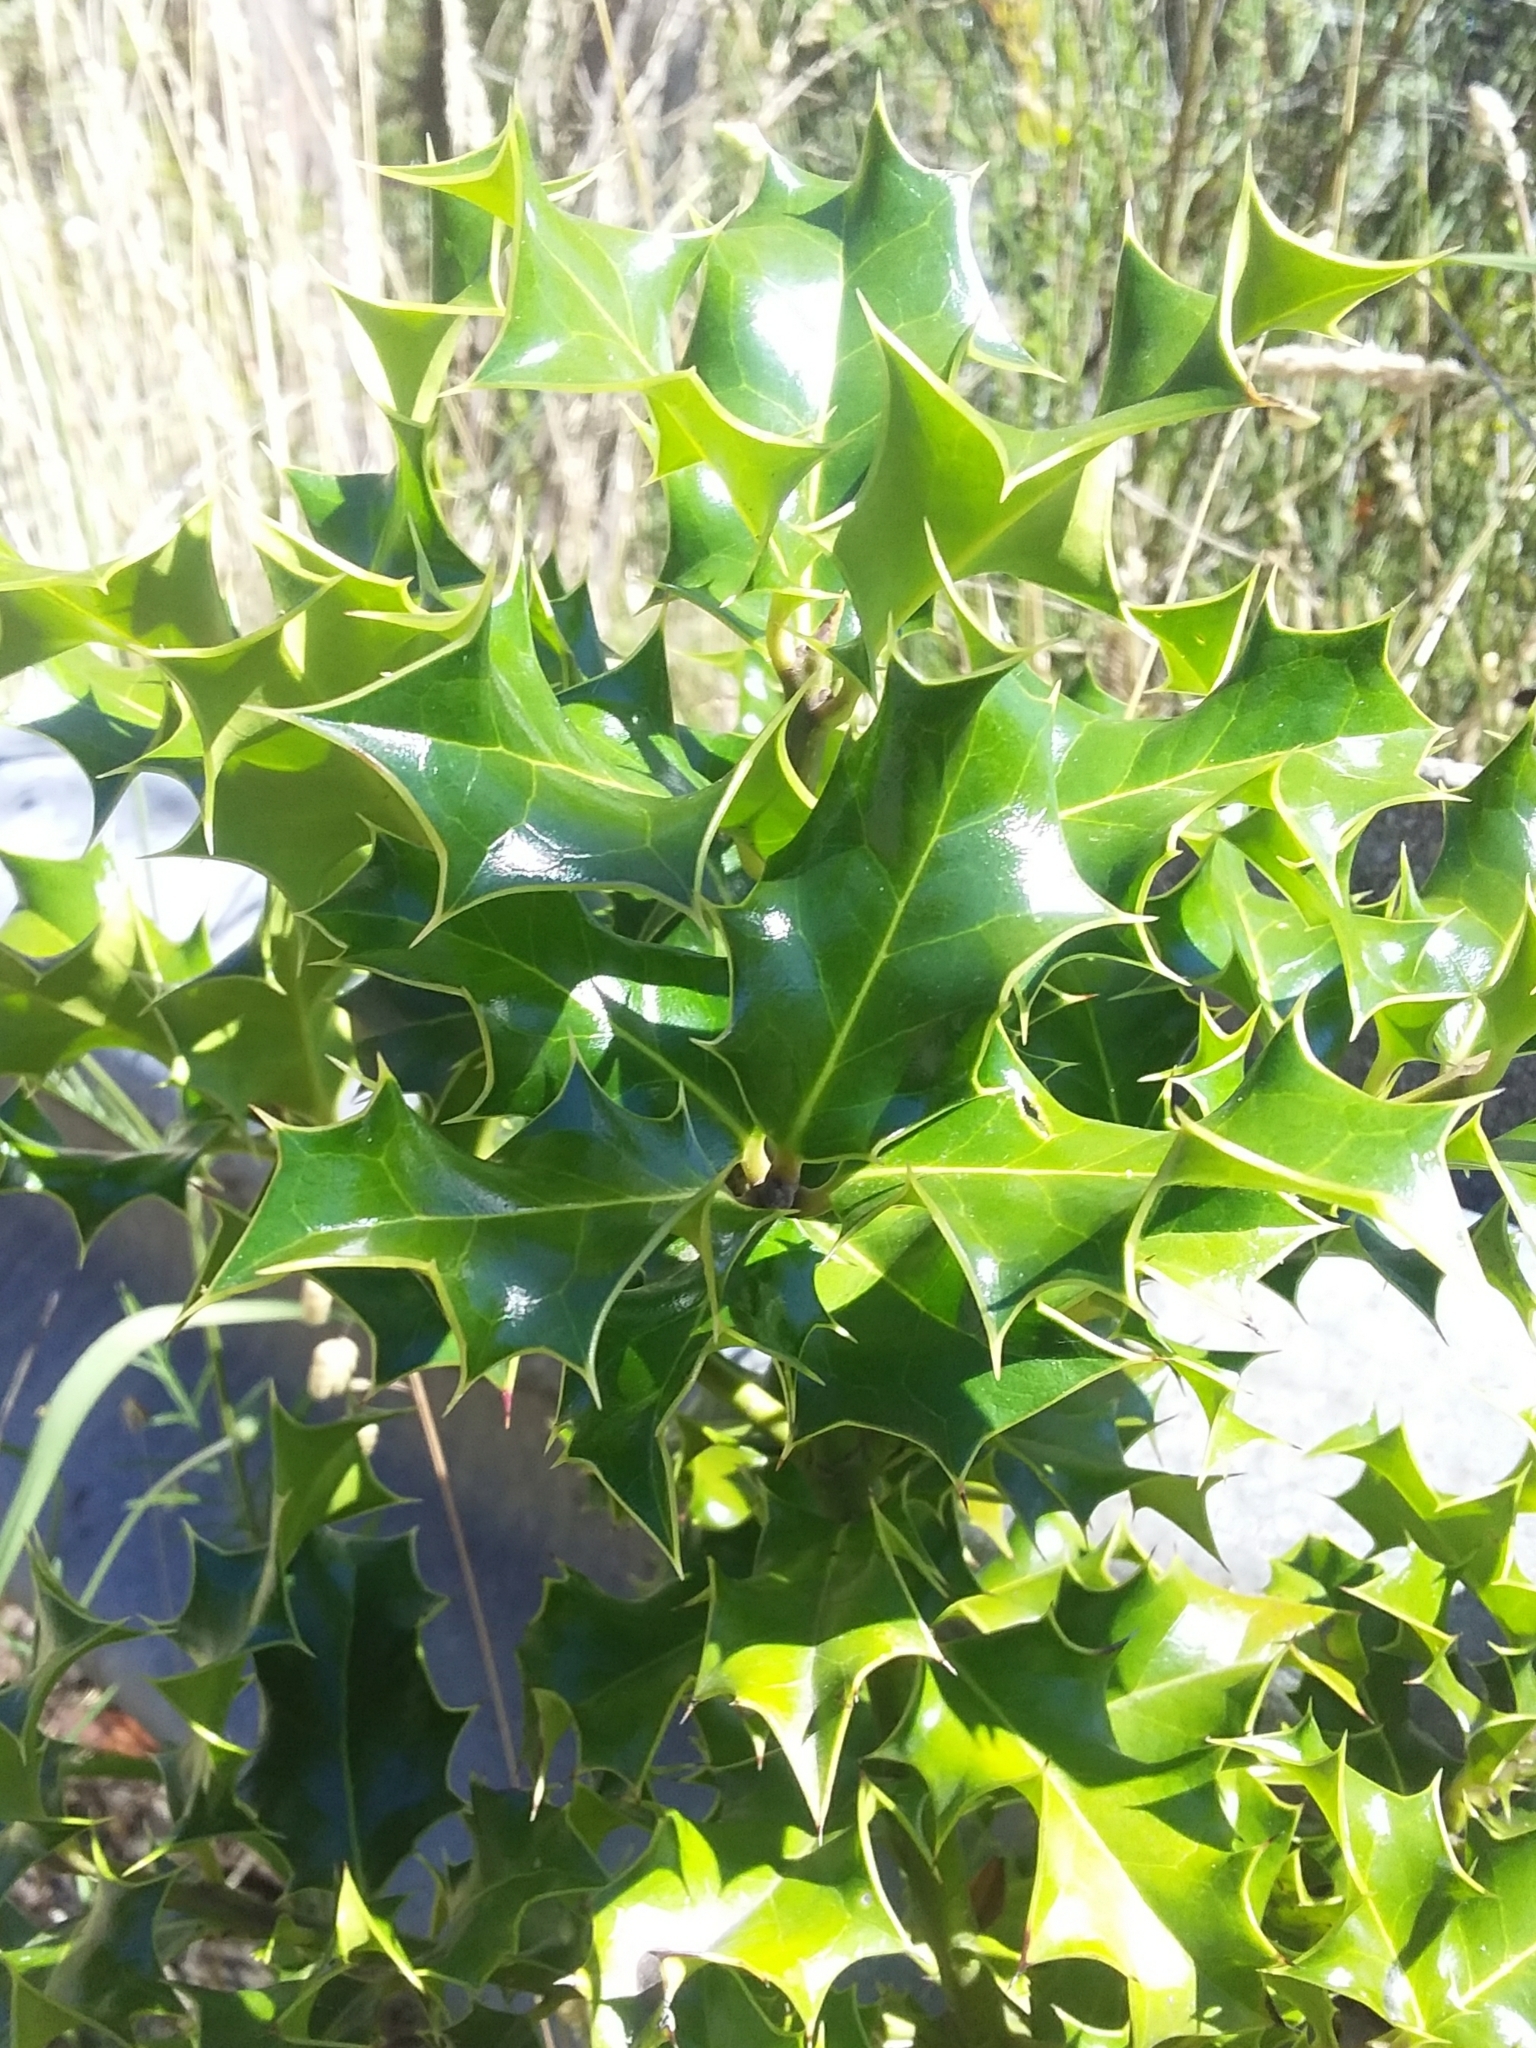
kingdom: Plantae
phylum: Tracheophyta
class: Magnoliopsida
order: Aquifoliales
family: Aquifoliaceae
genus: Ilex
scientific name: Ilex aquifolium
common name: English holly
